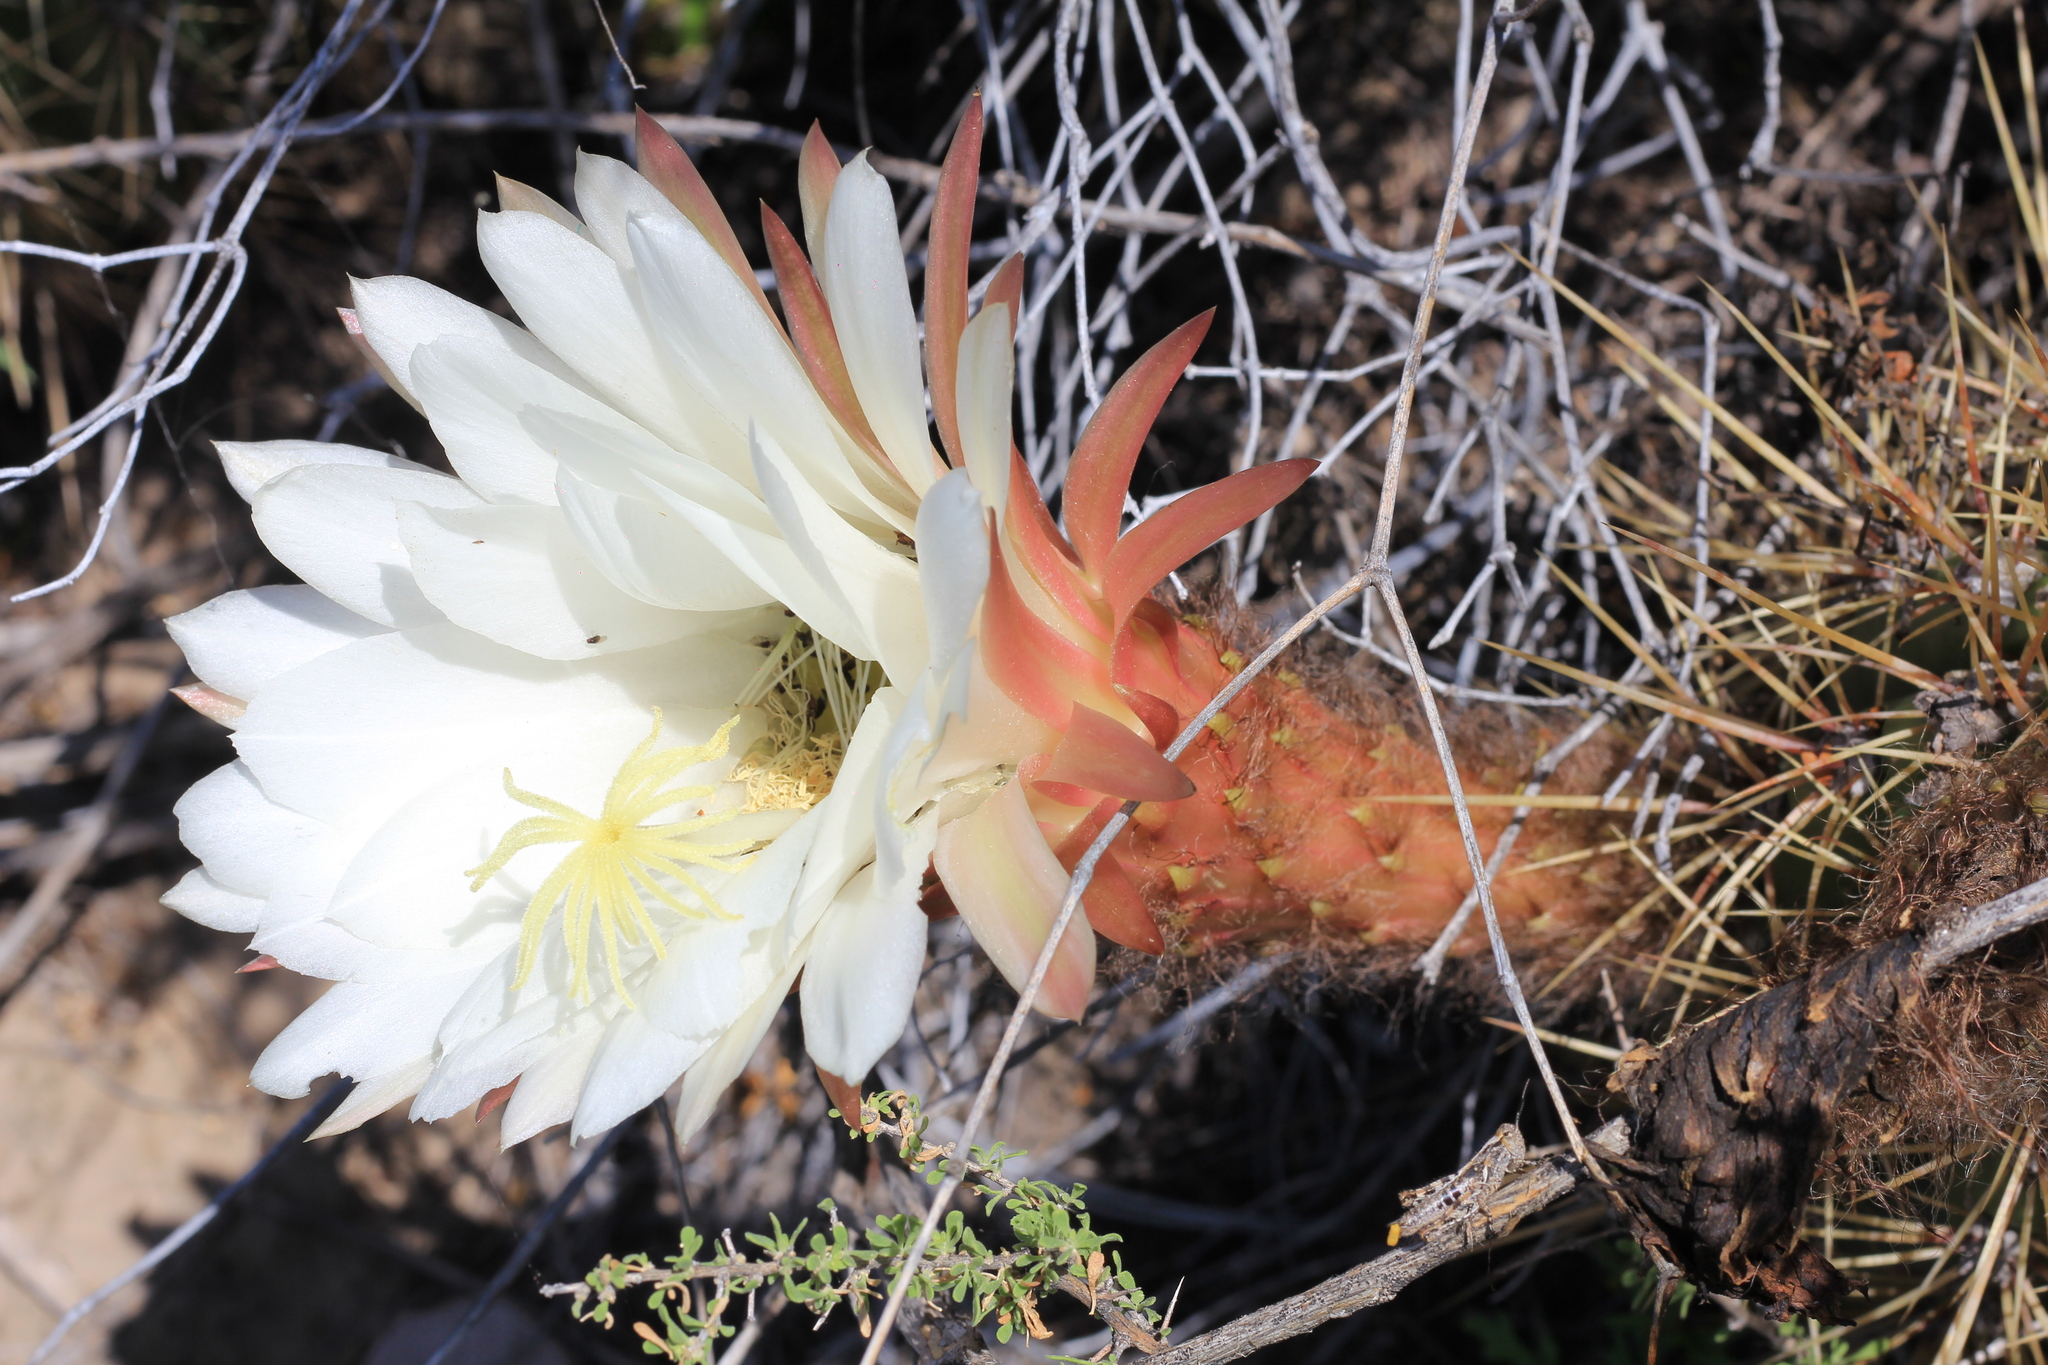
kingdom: Plantae
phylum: Tracheophyta
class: Magnoliopsida
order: Caryophyllales
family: Cactaceae
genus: Soehrensia
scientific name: Soehrensia candicans
